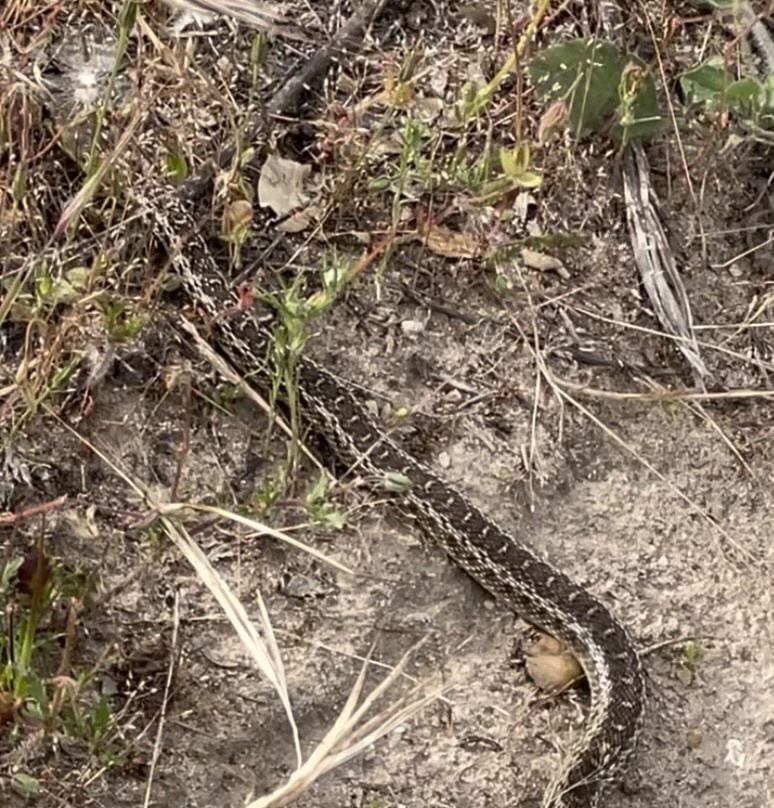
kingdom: Animalia
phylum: Chordata
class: Squamata
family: Colubridae
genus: Pituophis
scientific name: Pituophis catenifer
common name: Gopher snake
